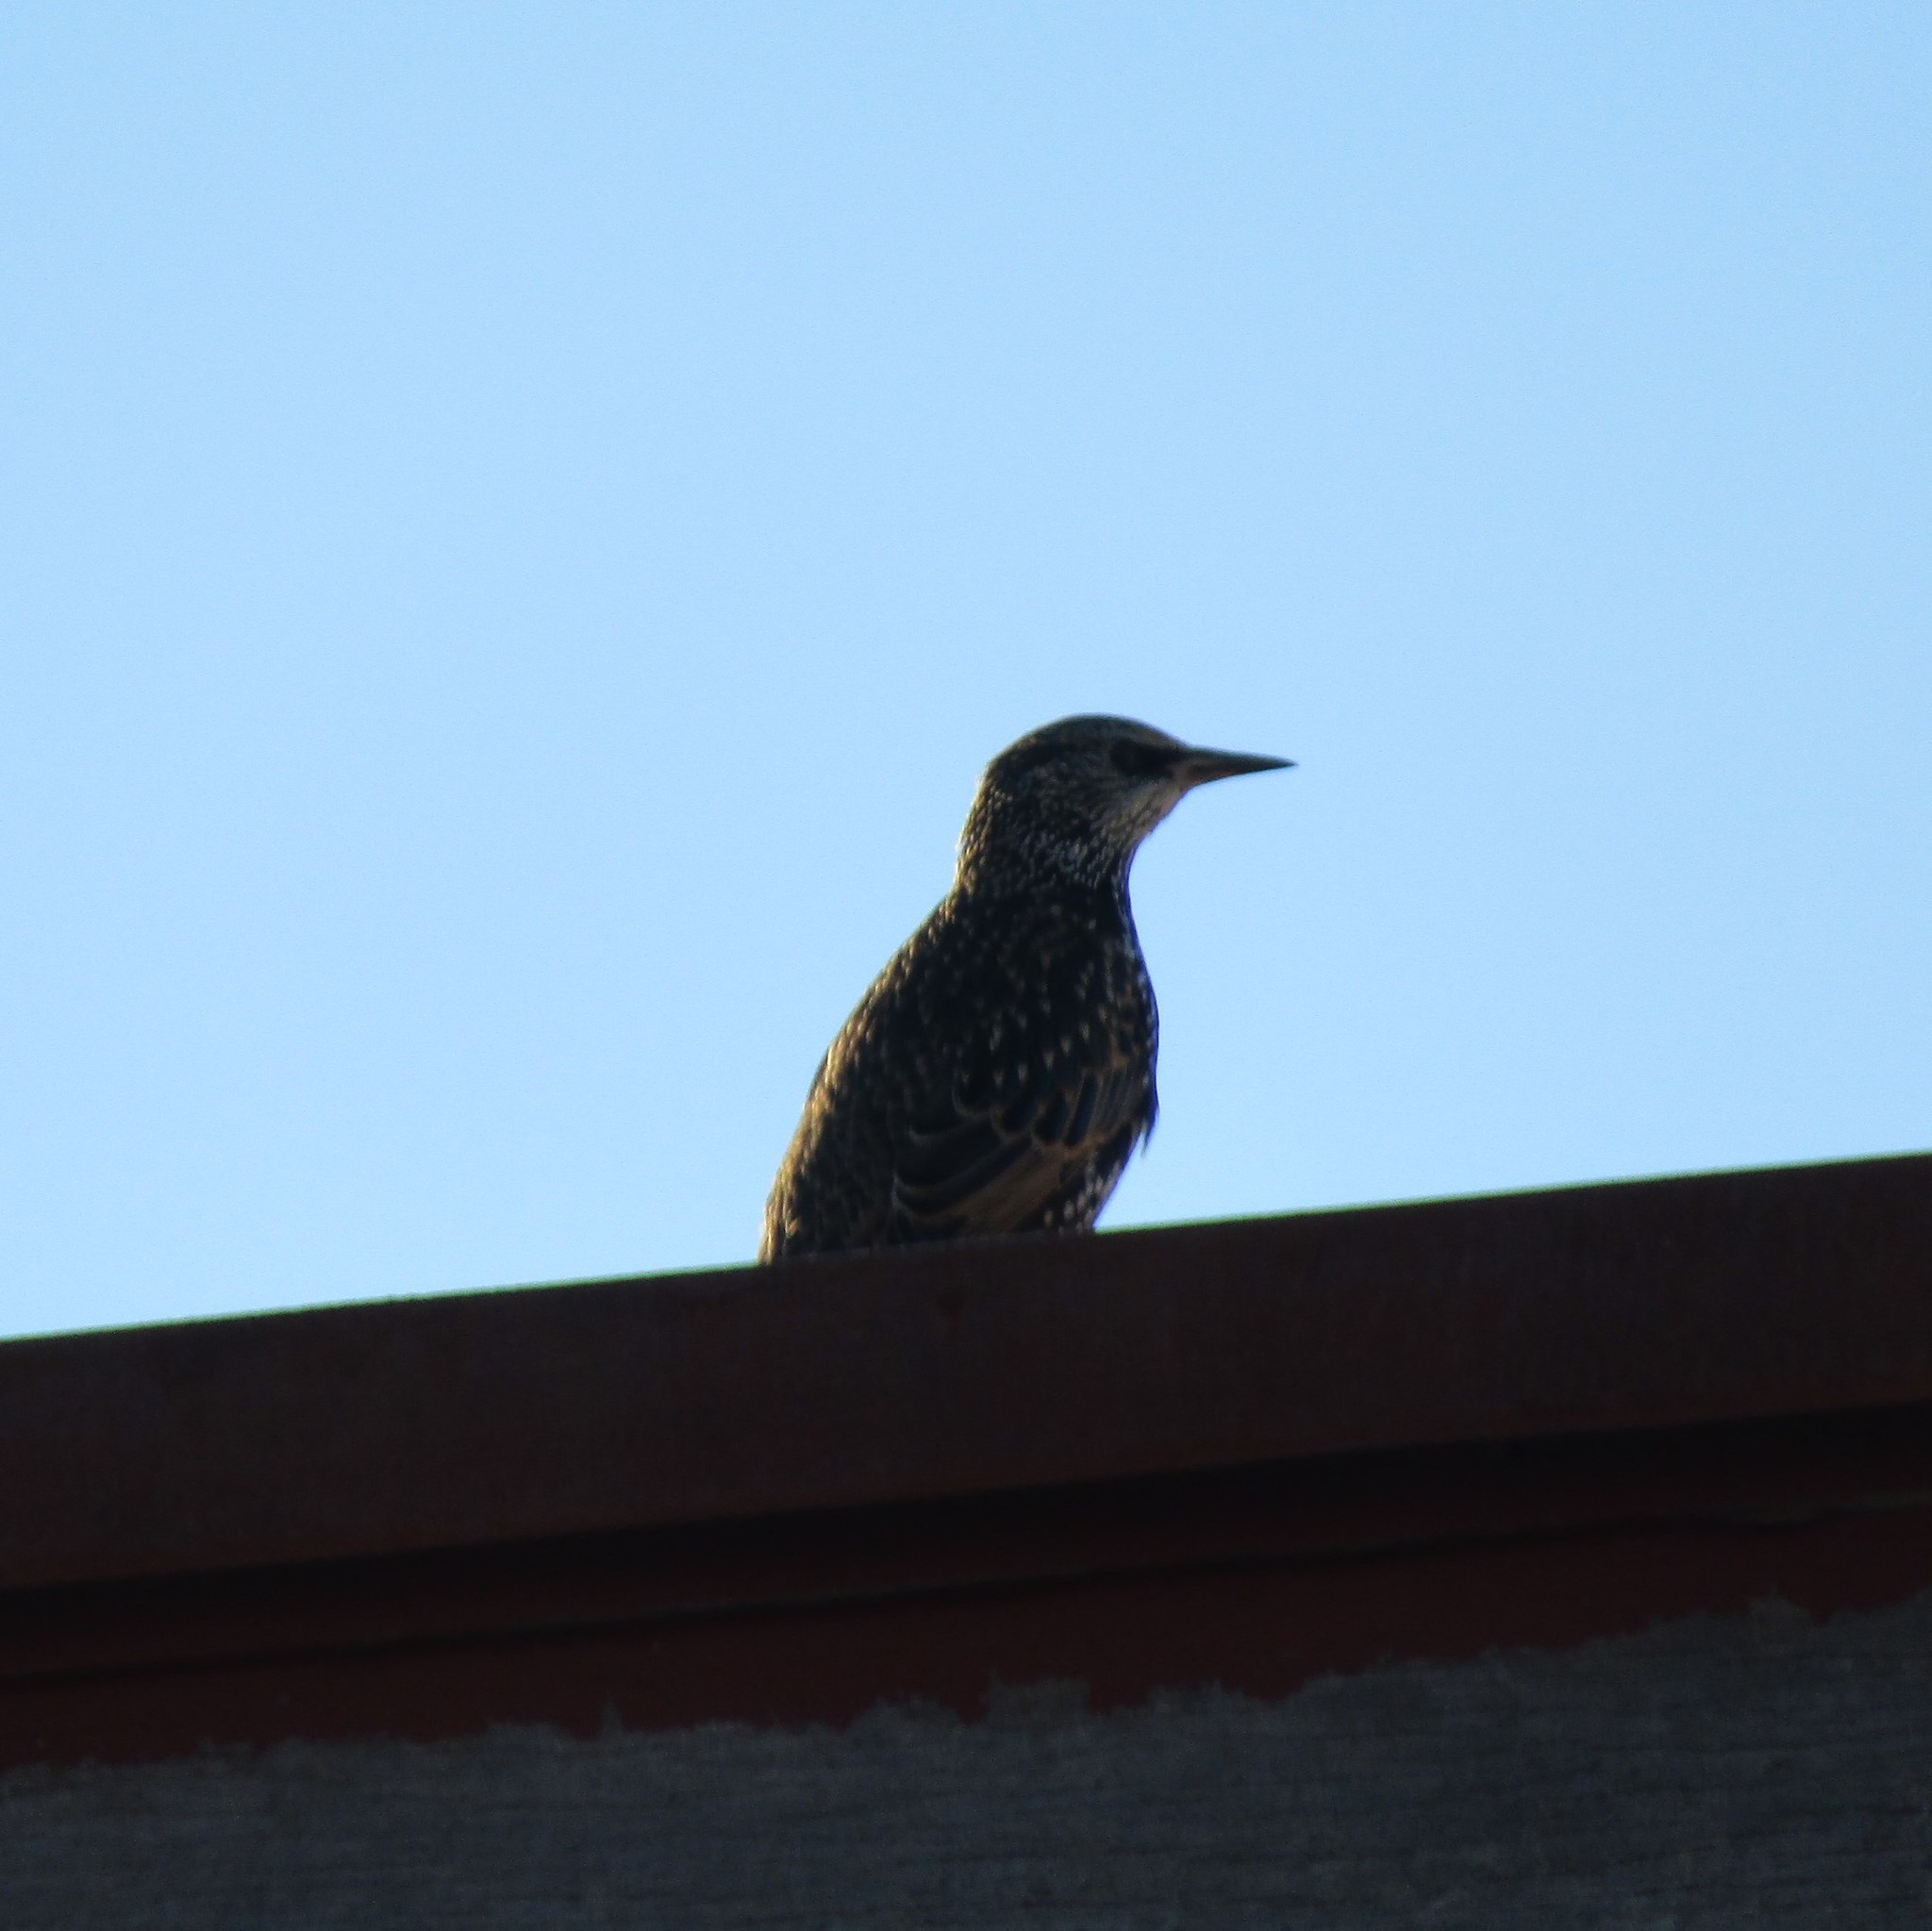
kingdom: Animalia
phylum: Chordata
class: Aves
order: Passeriformes
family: Sturnidae
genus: Sturnus
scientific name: Sturnus vulgaris
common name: Common starling
